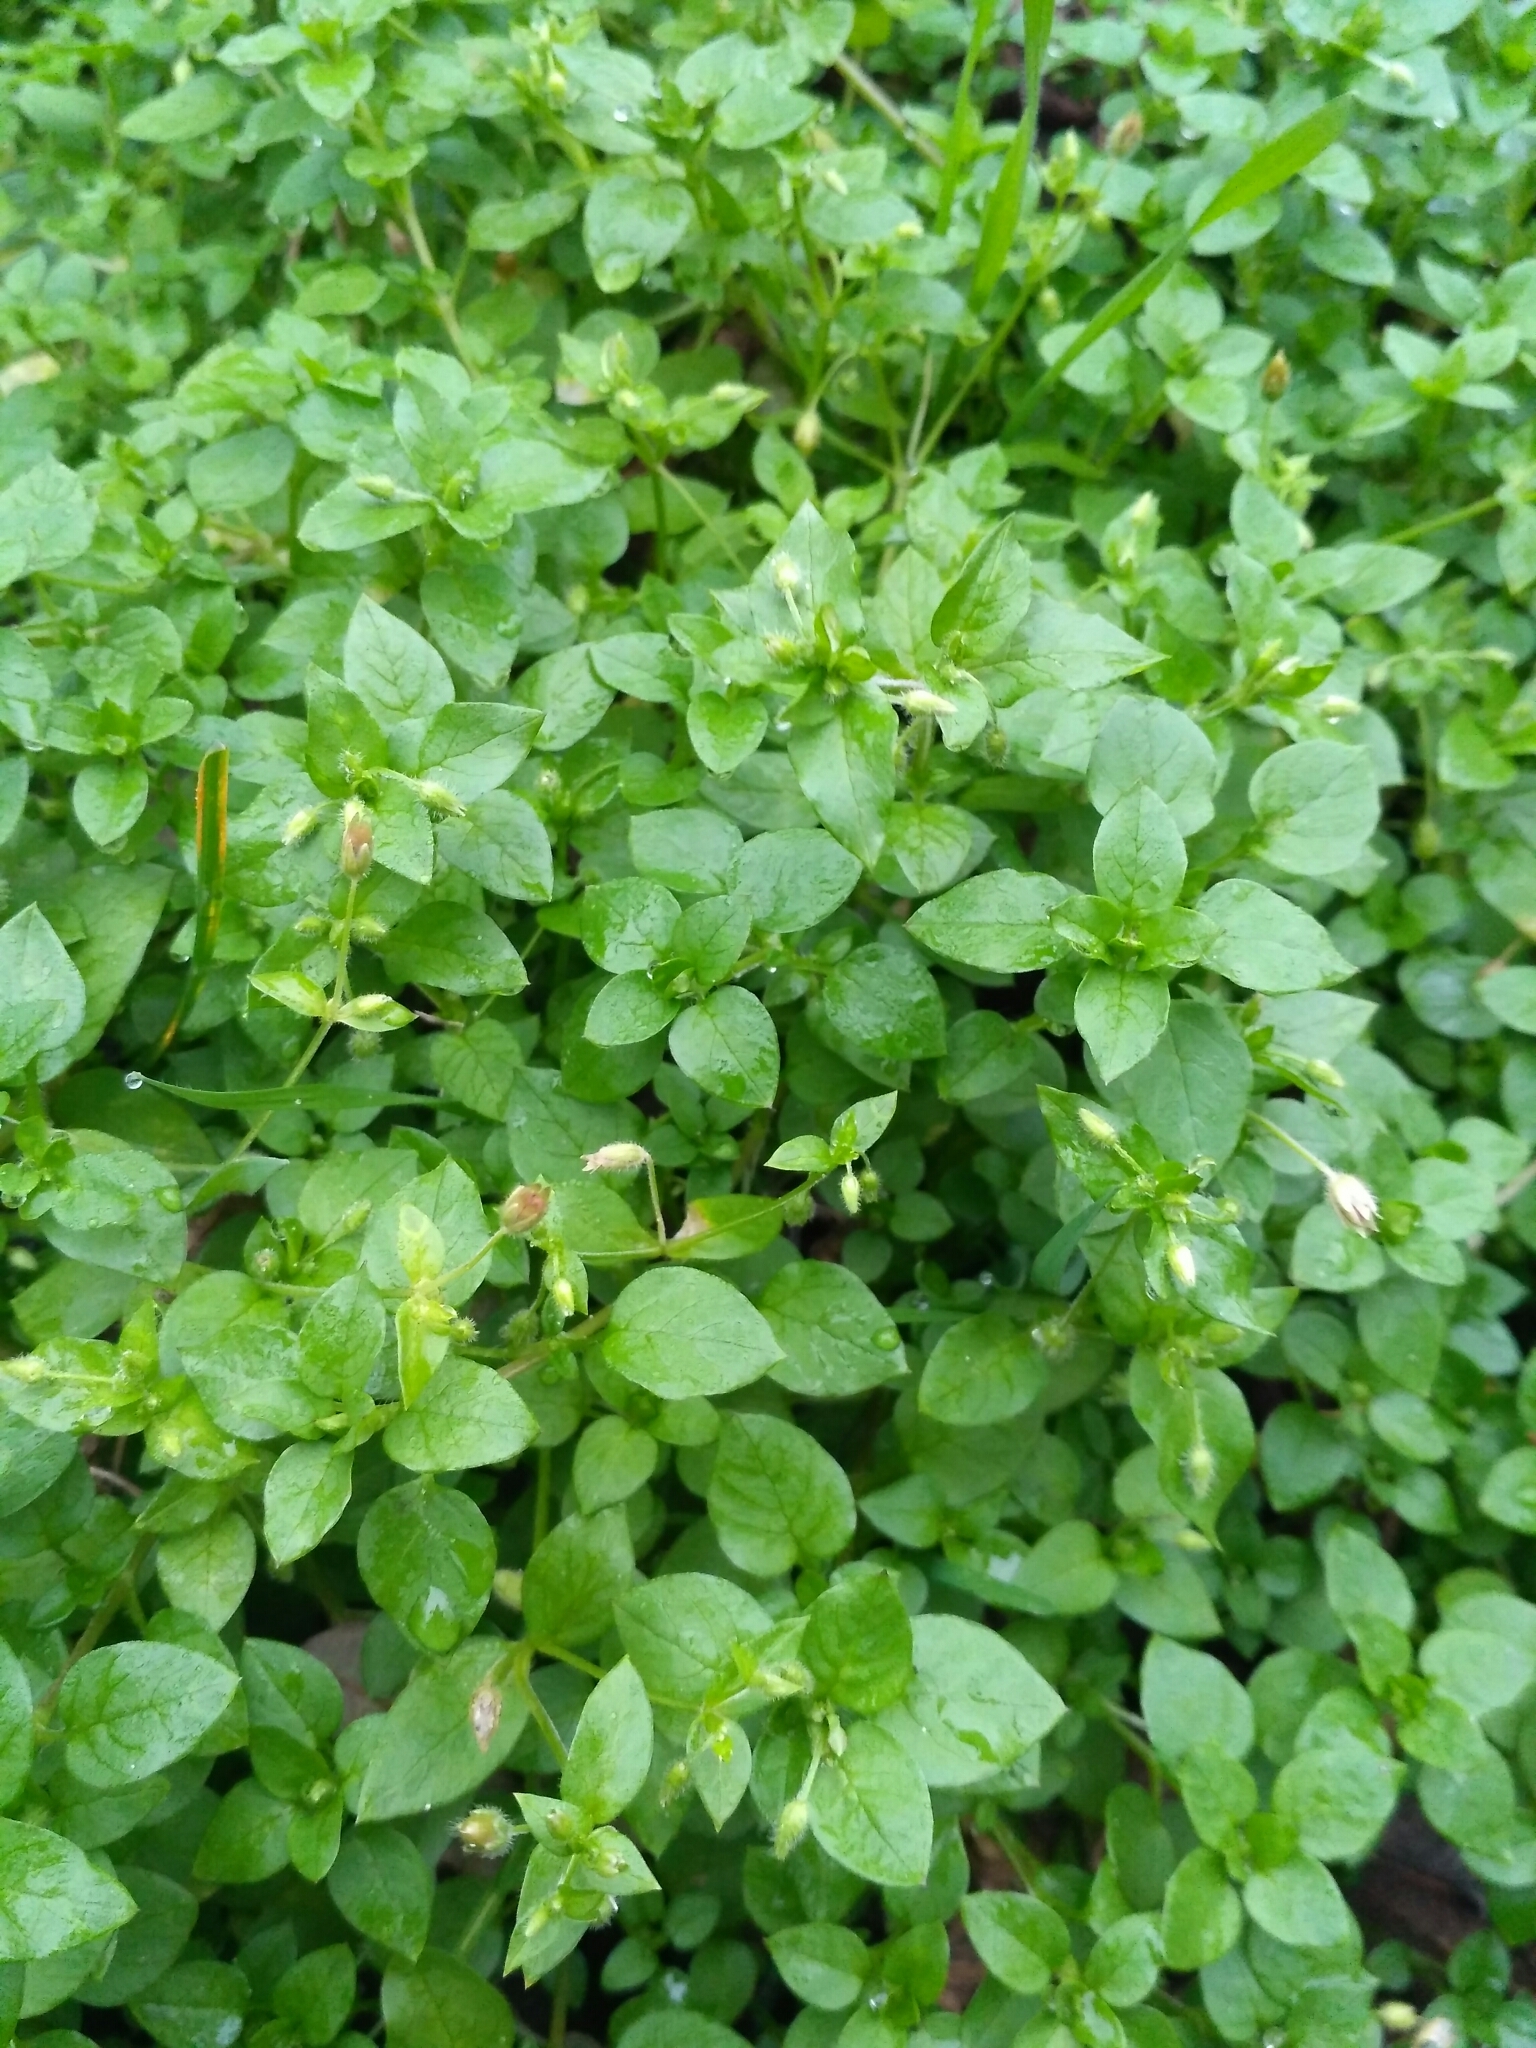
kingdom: Plantae
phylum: Tracheophyta
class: Magnoliopsida
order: Caryophyllales
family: Caryophyllaceae
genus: Stellaria
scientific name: Stellaria media
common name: Common chickweed
